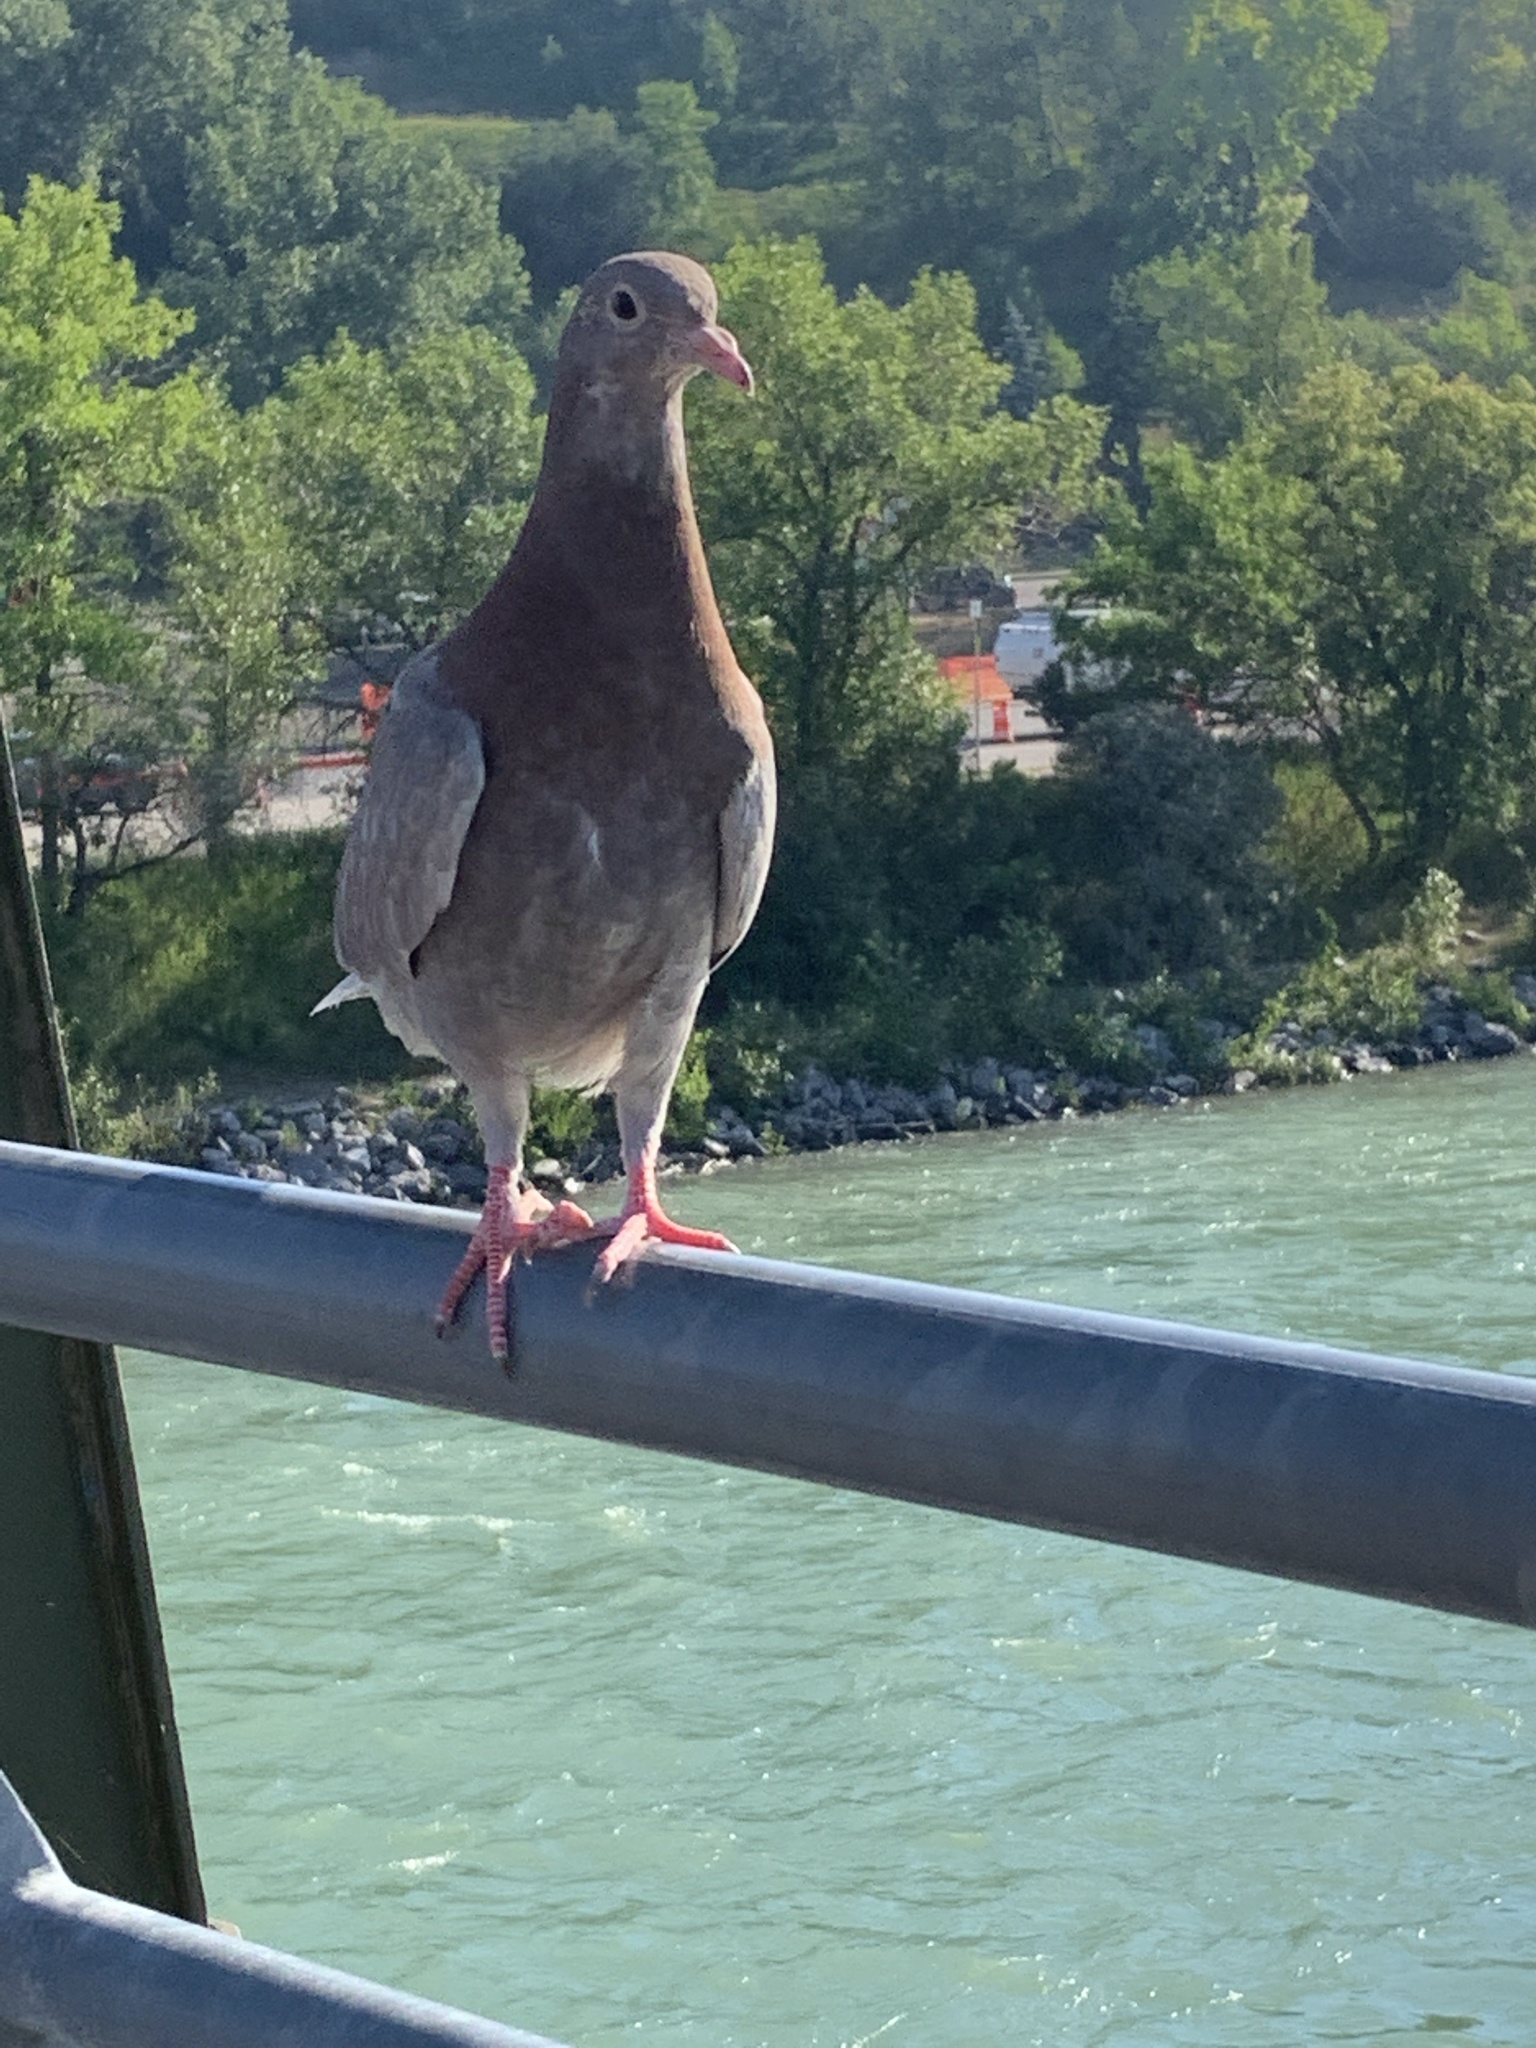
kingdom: Animalia
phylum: Chordata
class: Aves
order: Columbiformes
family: Columbidae
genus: Columba
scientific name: Columba livia
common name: Rock pigeon
